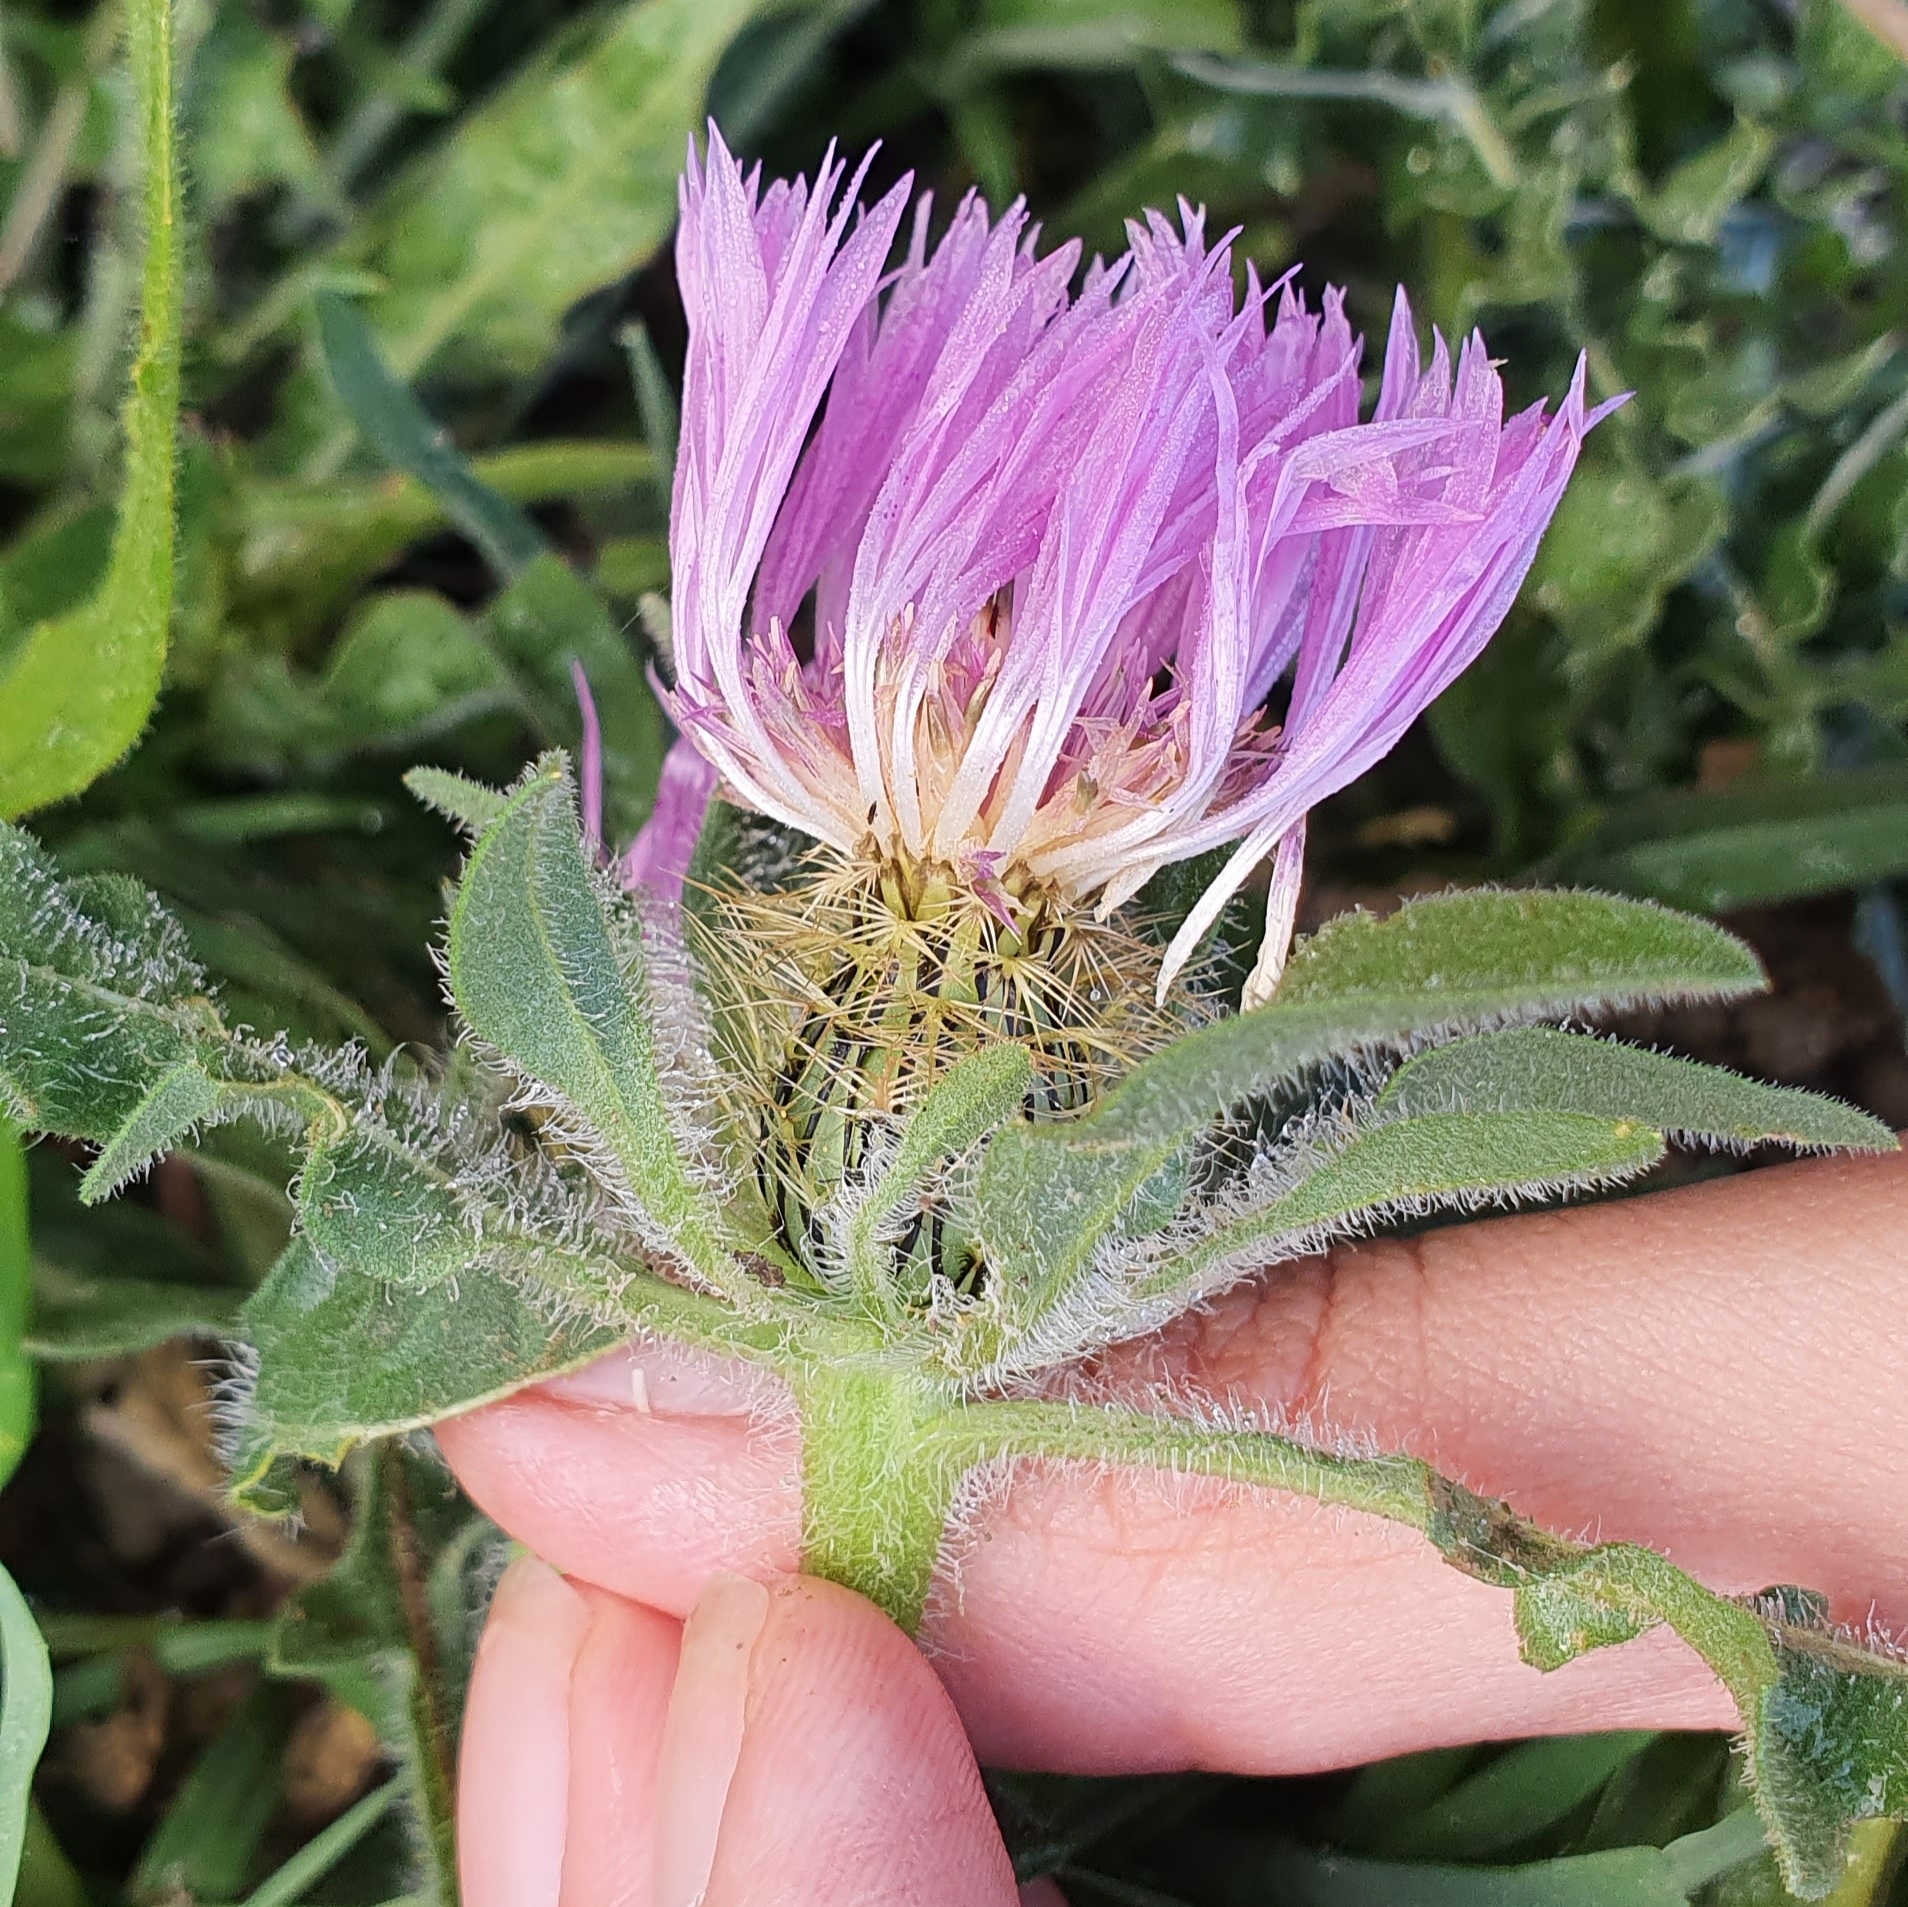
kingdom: Plantae
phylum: Tracheophyta
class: Magnoliopsida
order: Asterales
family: Asteraceae
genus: Centaurea
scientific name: Centaurea pullata
